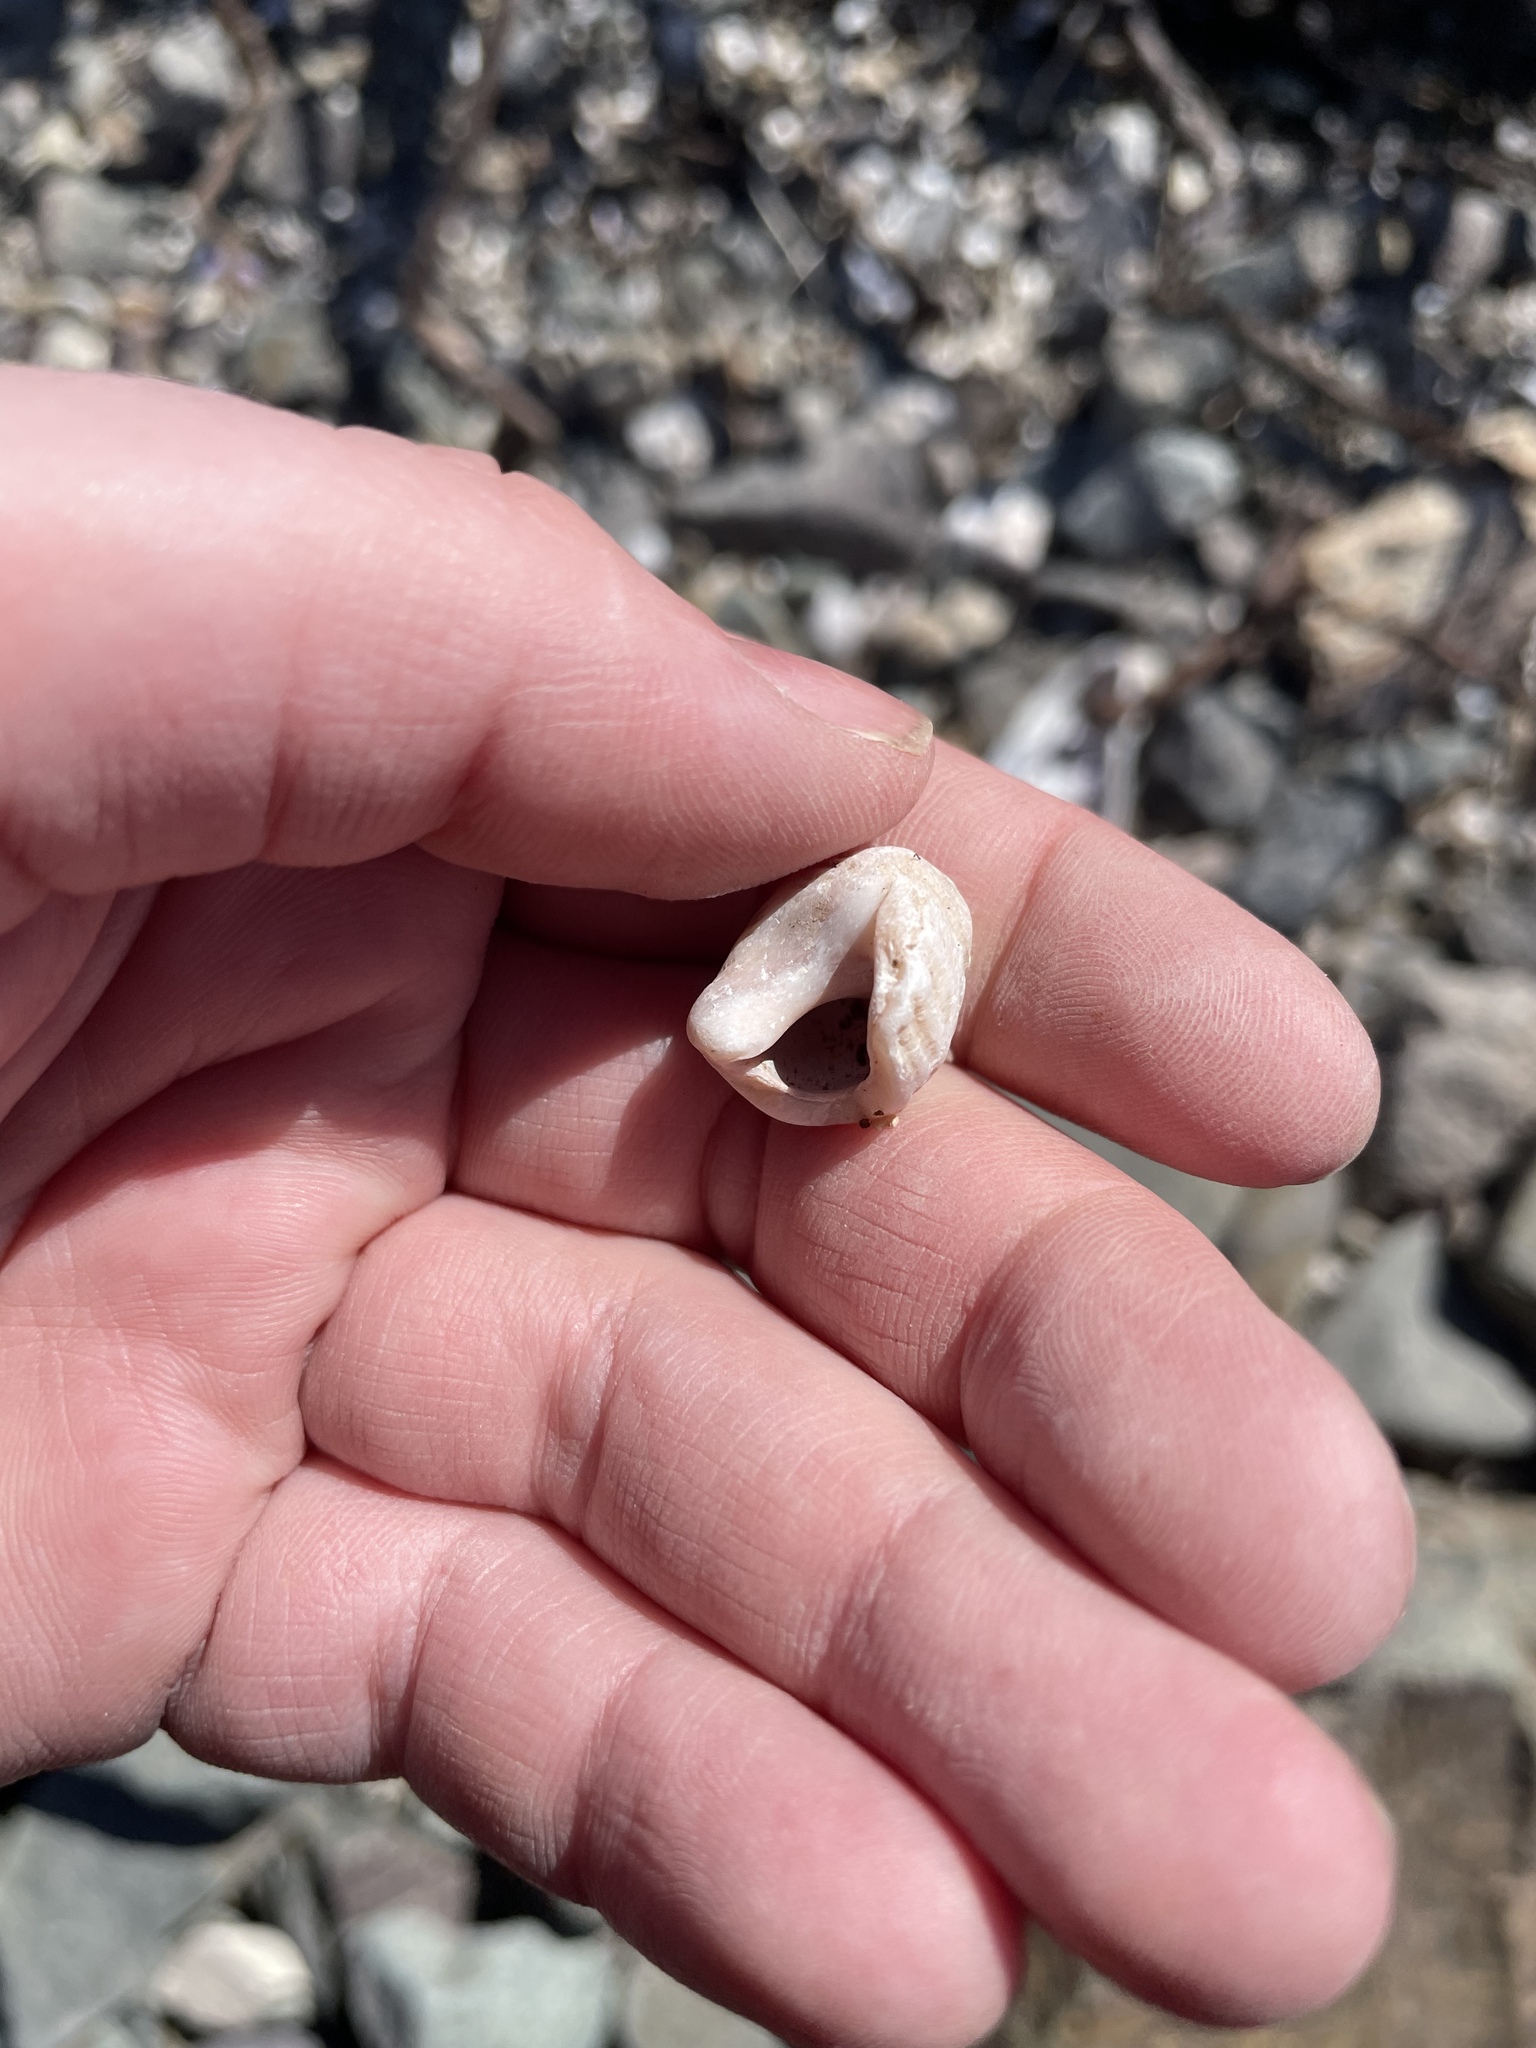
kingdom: Animalia
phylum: Mollusca
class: Gastropoda
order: Neogastropoda
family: Muricidae
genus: Nucella
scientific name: Nucella lapillus
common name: Dog whelk
